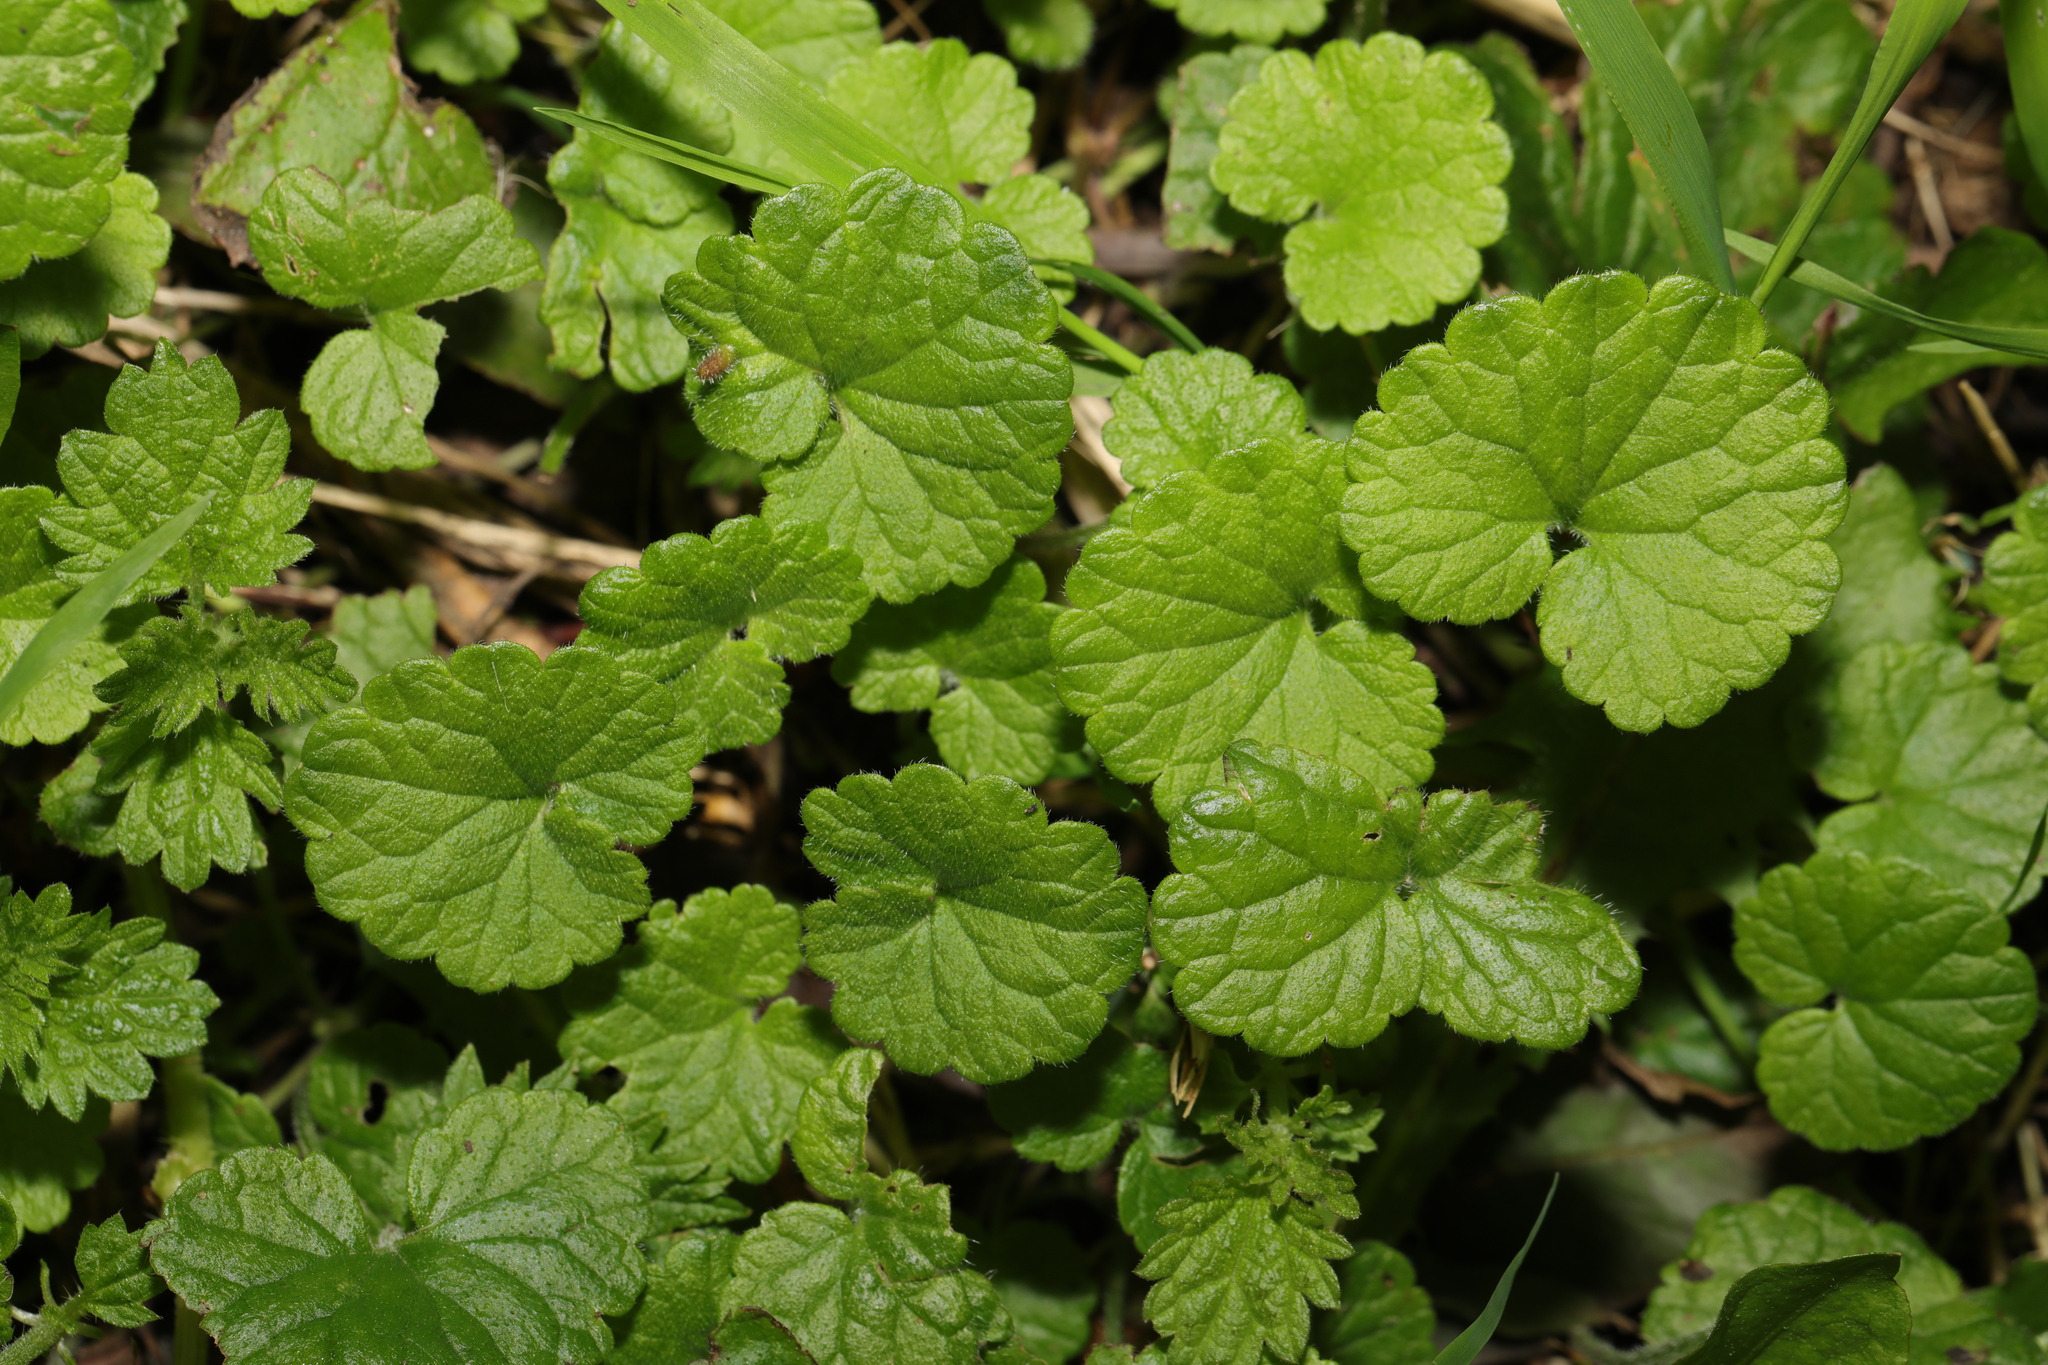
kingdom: Plantae
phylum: Tracheophyta
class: Magnoliopsida
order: Lamiales
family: Lamiaceae
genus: Glechoma
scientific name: Glechoma hederacea
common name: Ground ivy
